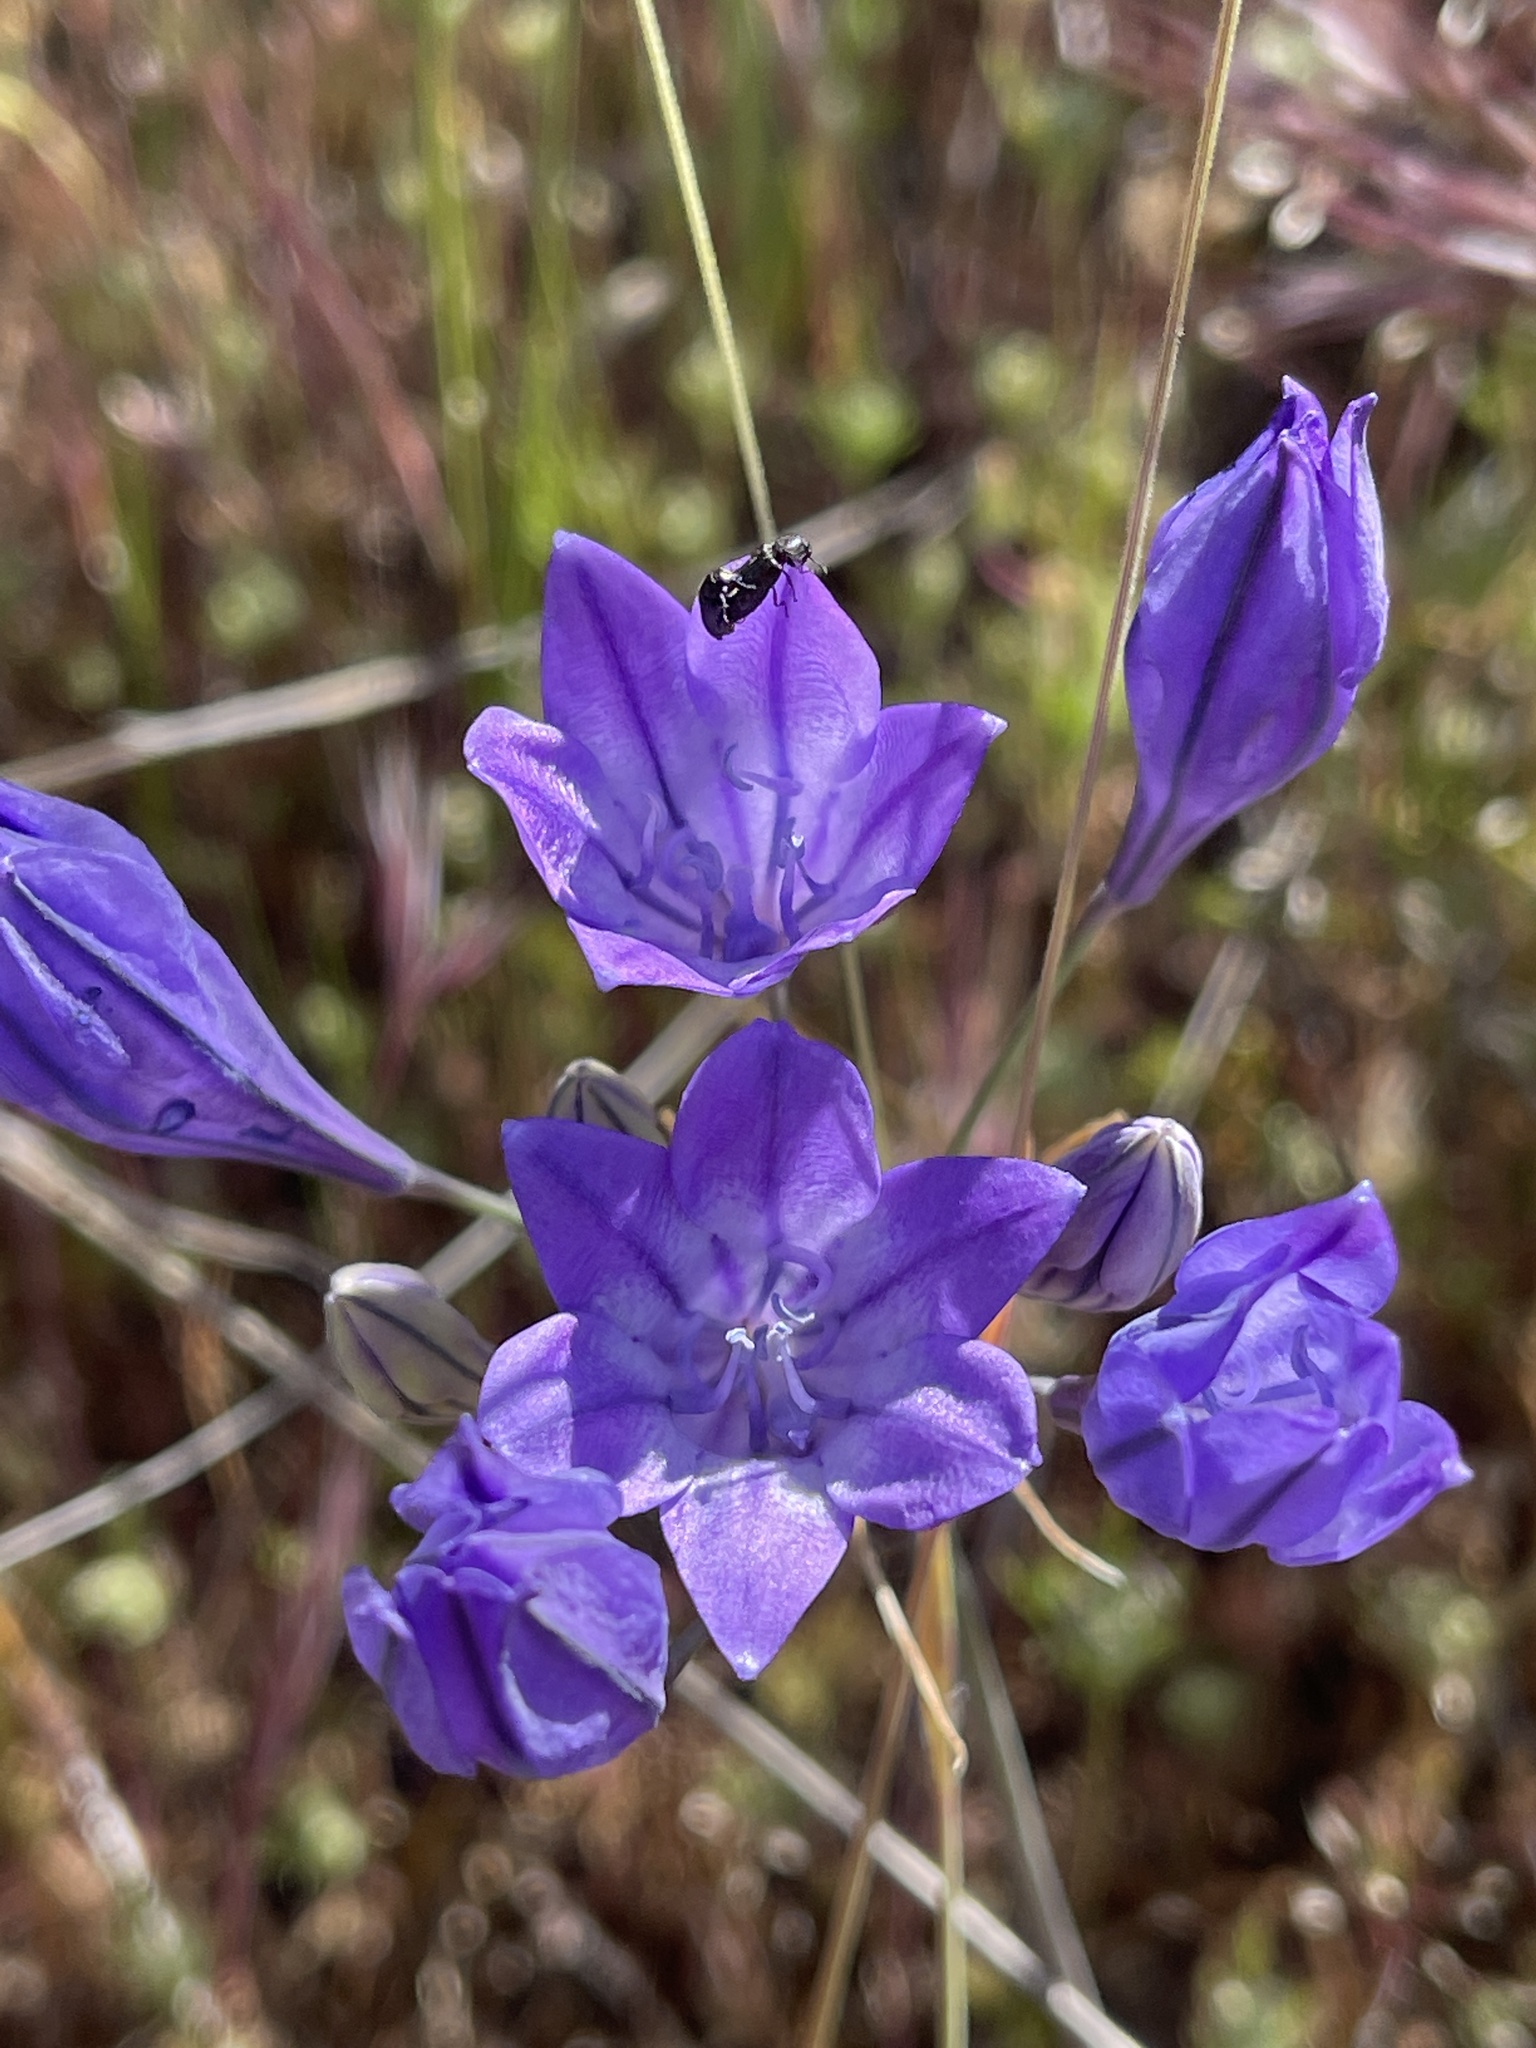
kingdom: Plantae
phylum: Tracheophyta
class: Liliopsida
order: Asparagales
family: Asparagaceae
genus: Triteleia
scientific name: Triteleia laxa
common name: Triplet-lily
